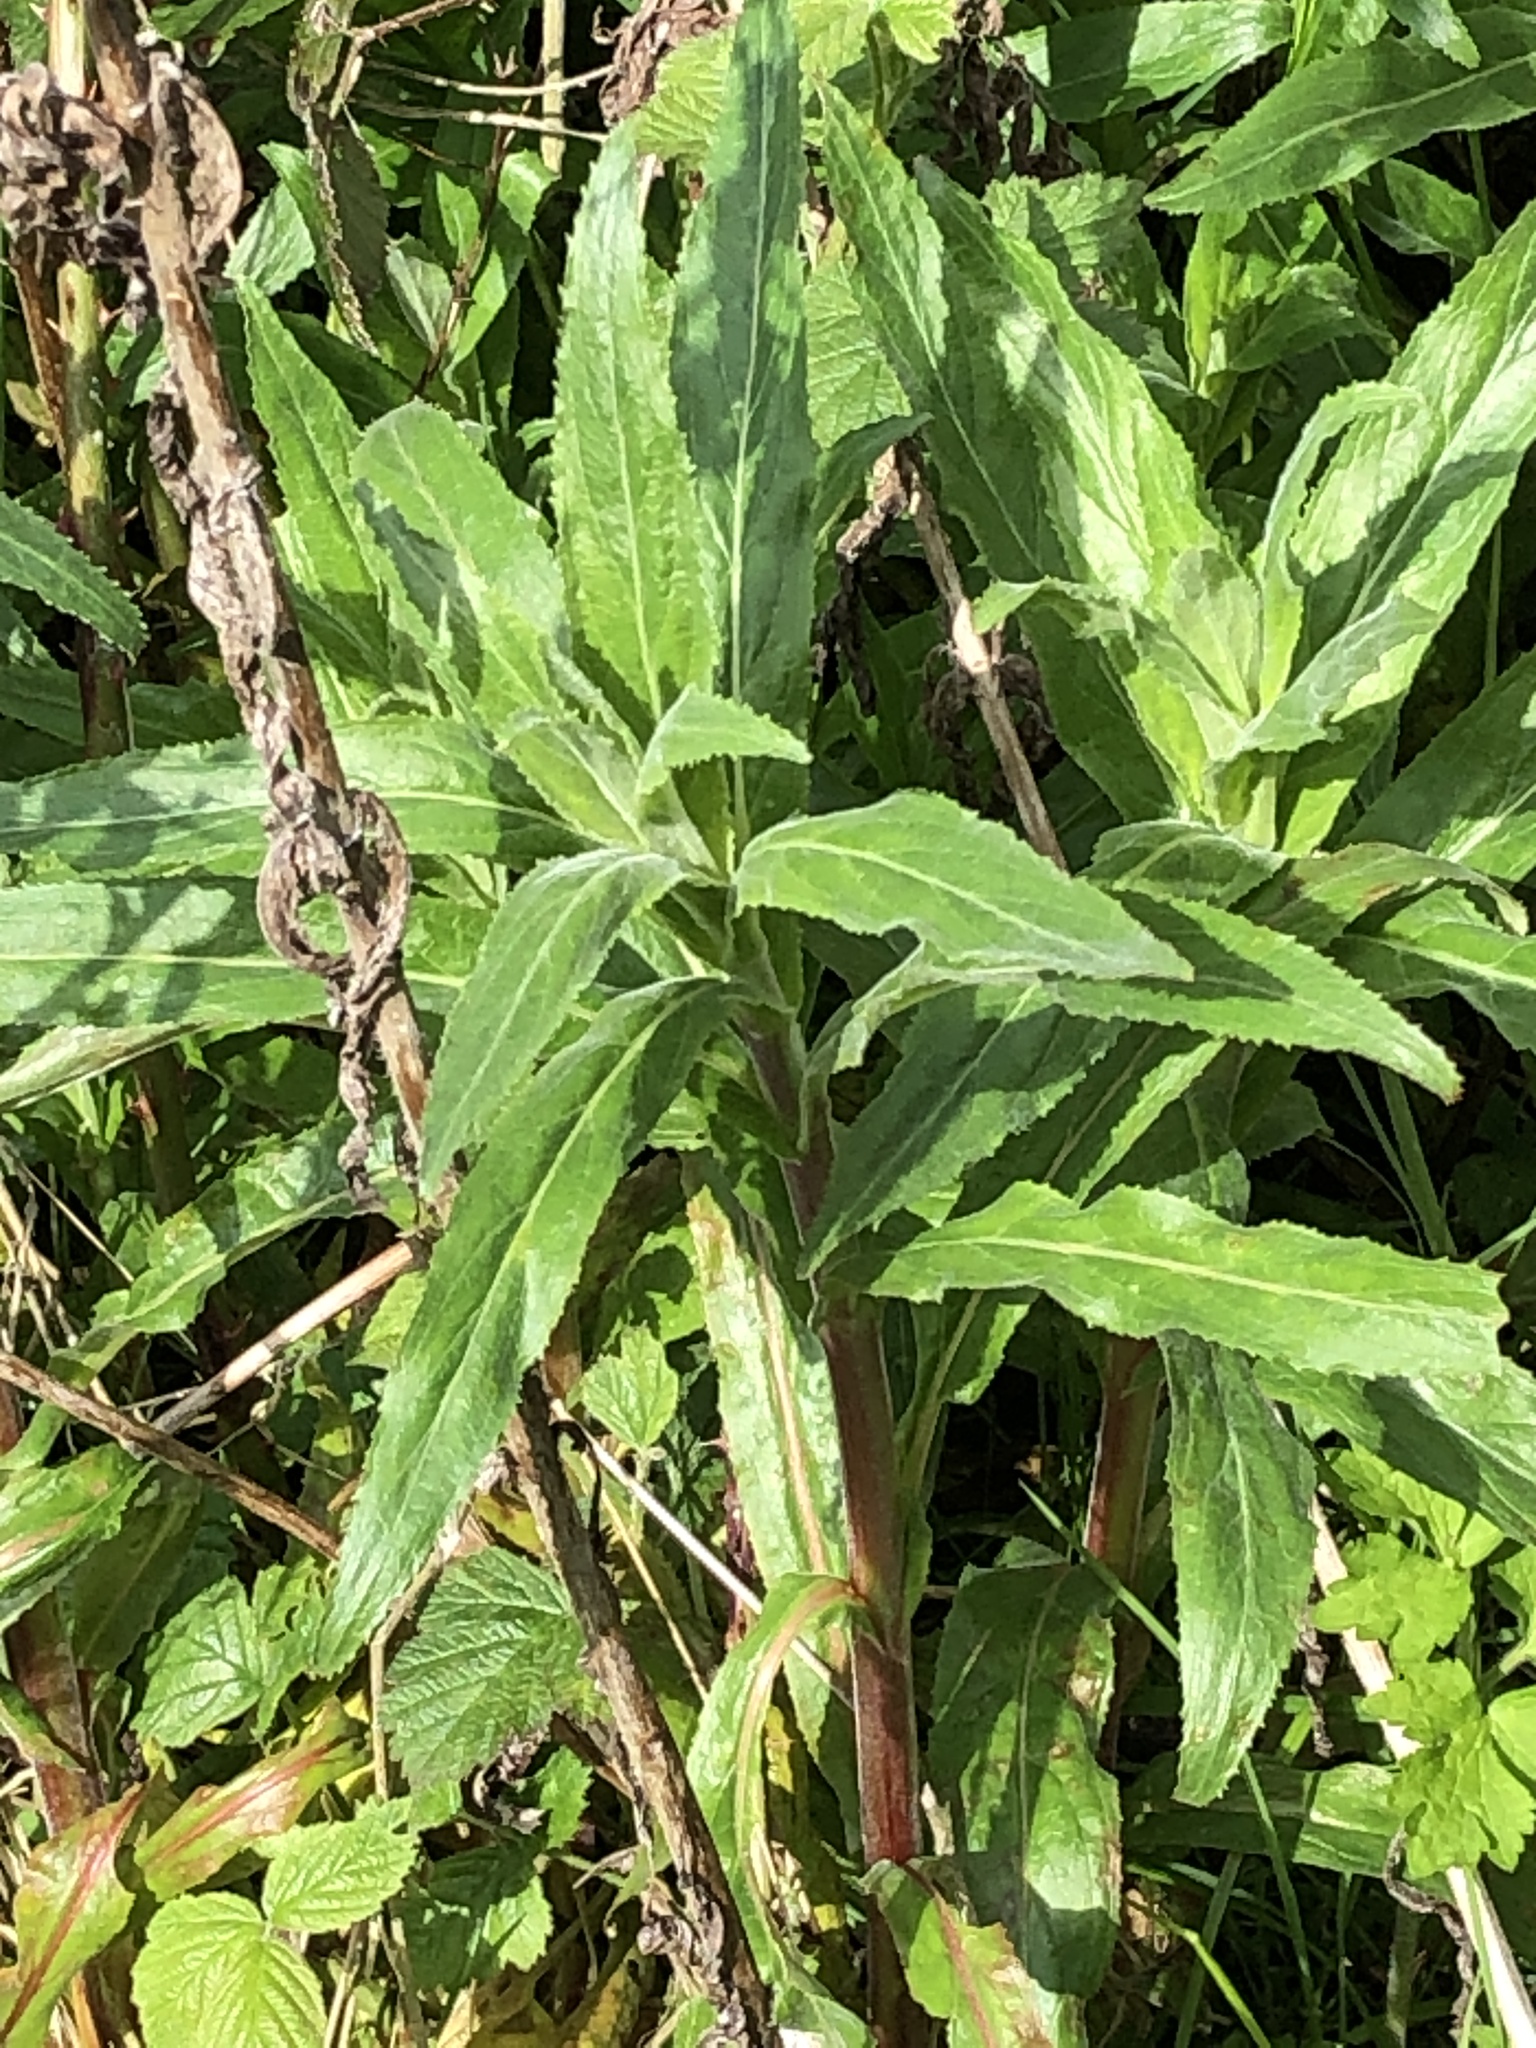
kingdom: Plantae
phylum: Tracheophyta
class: Magnoliopsida
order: Myrtales
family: Onagraceae
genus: Epilobium
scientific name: Epilobium hirsutum
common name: Great willowherb
